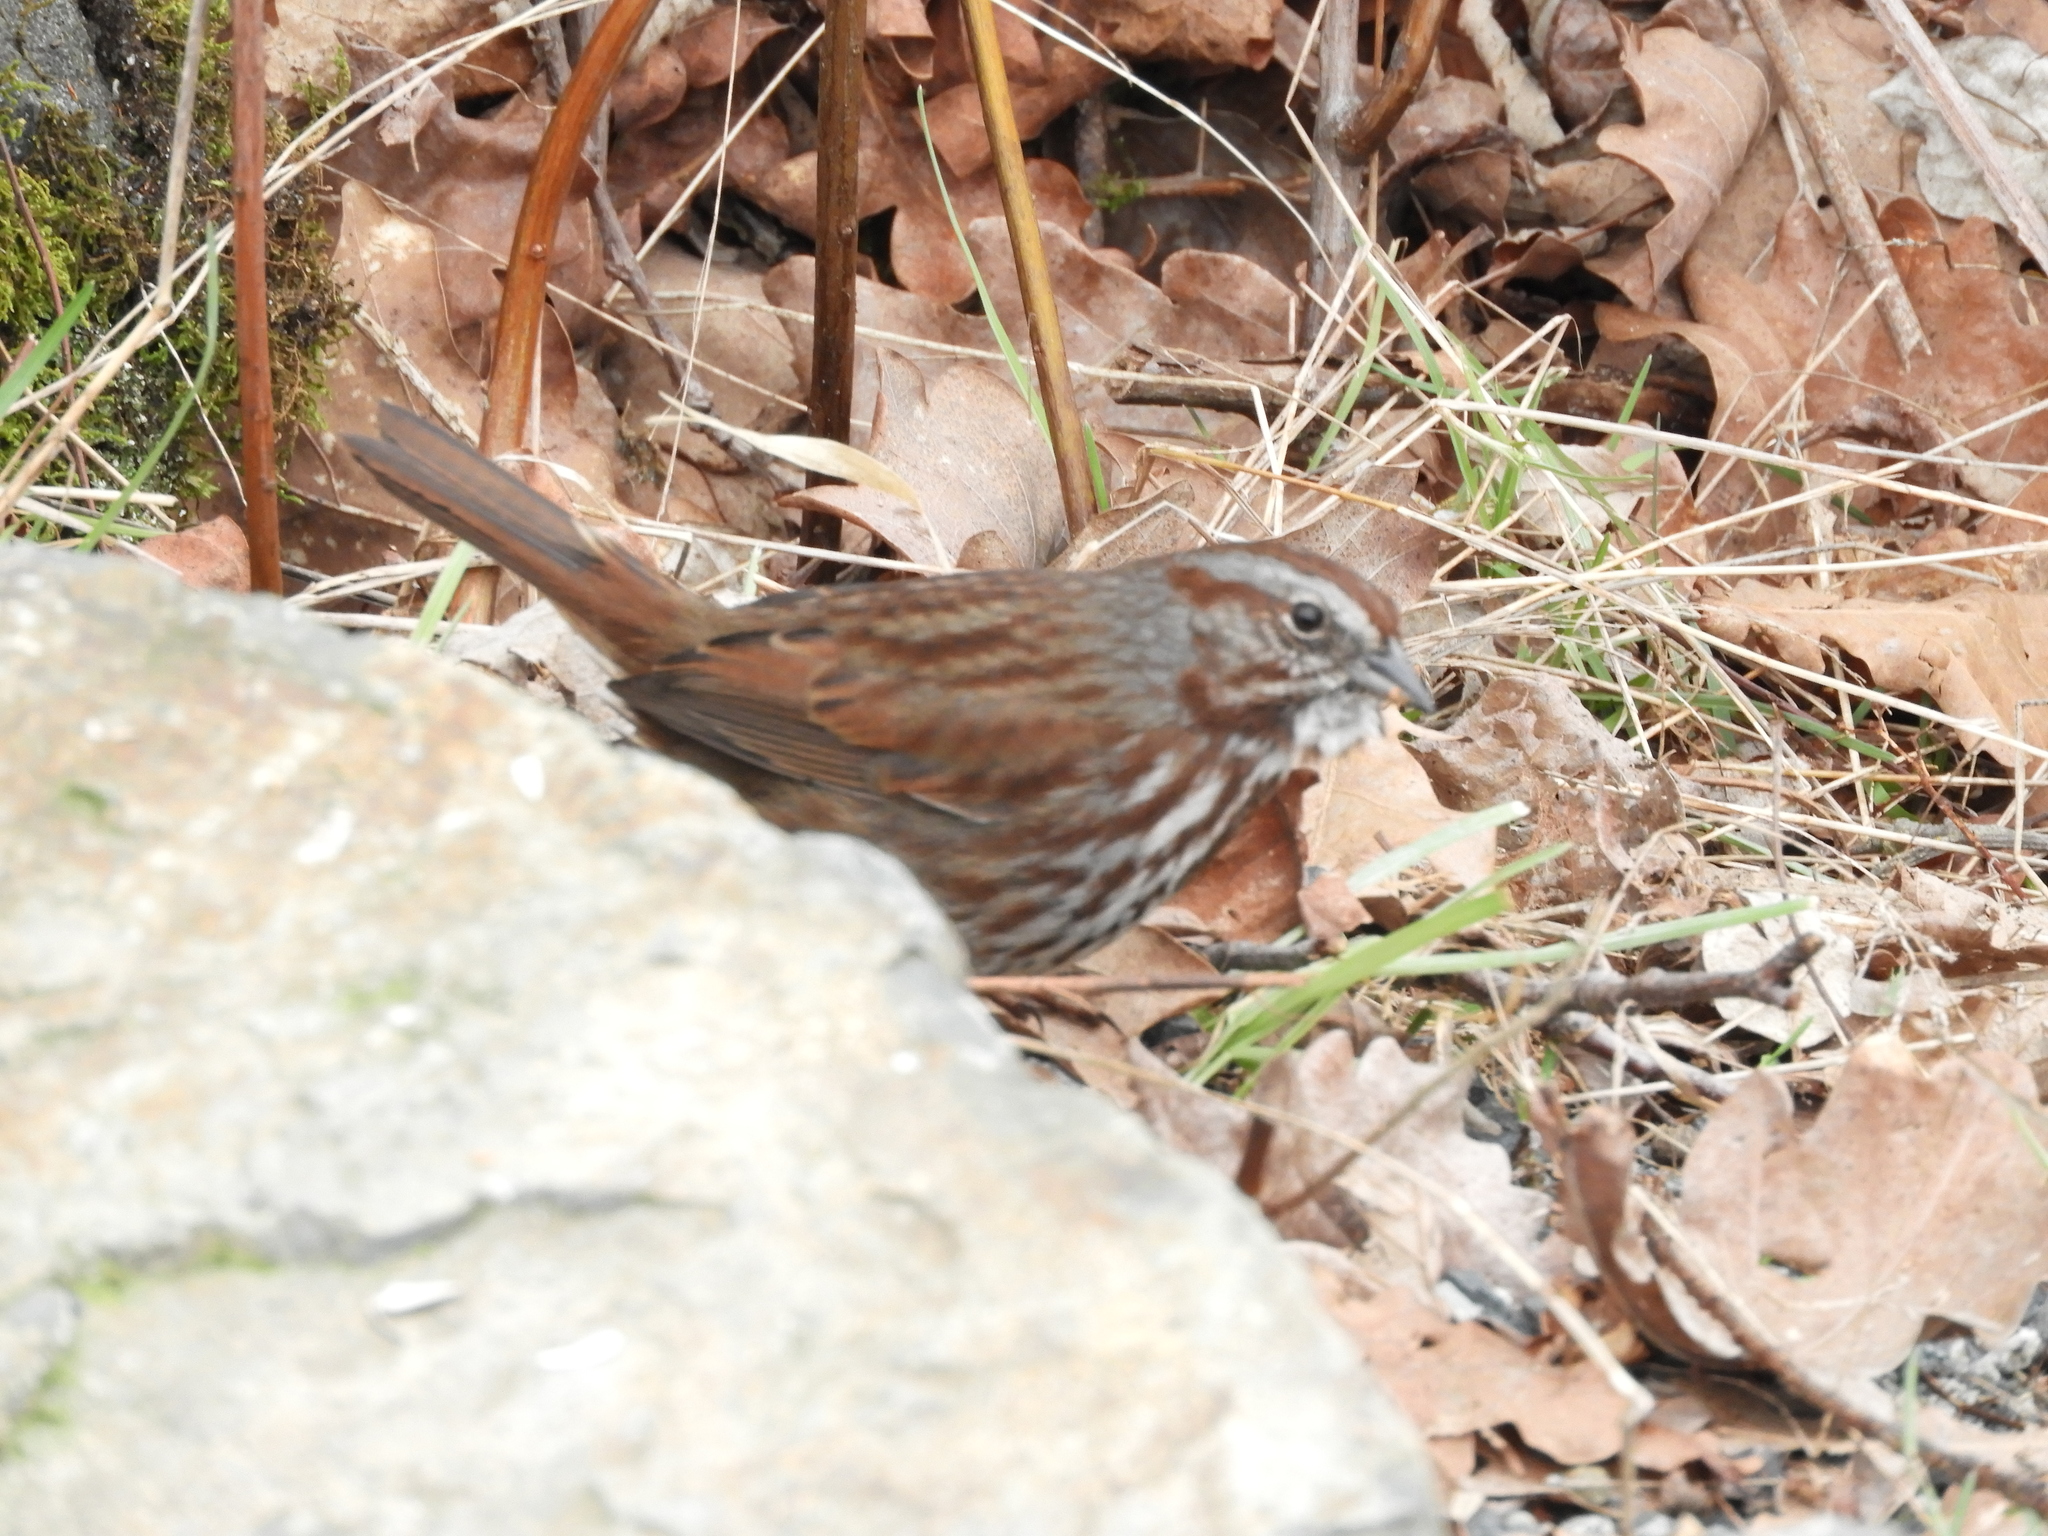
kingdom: Animalia
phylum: Chordata
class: Aves
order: Passeriformes
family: Passerellidae
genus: Melospiza
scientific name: Melospiza melodia
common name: Song sparrow
